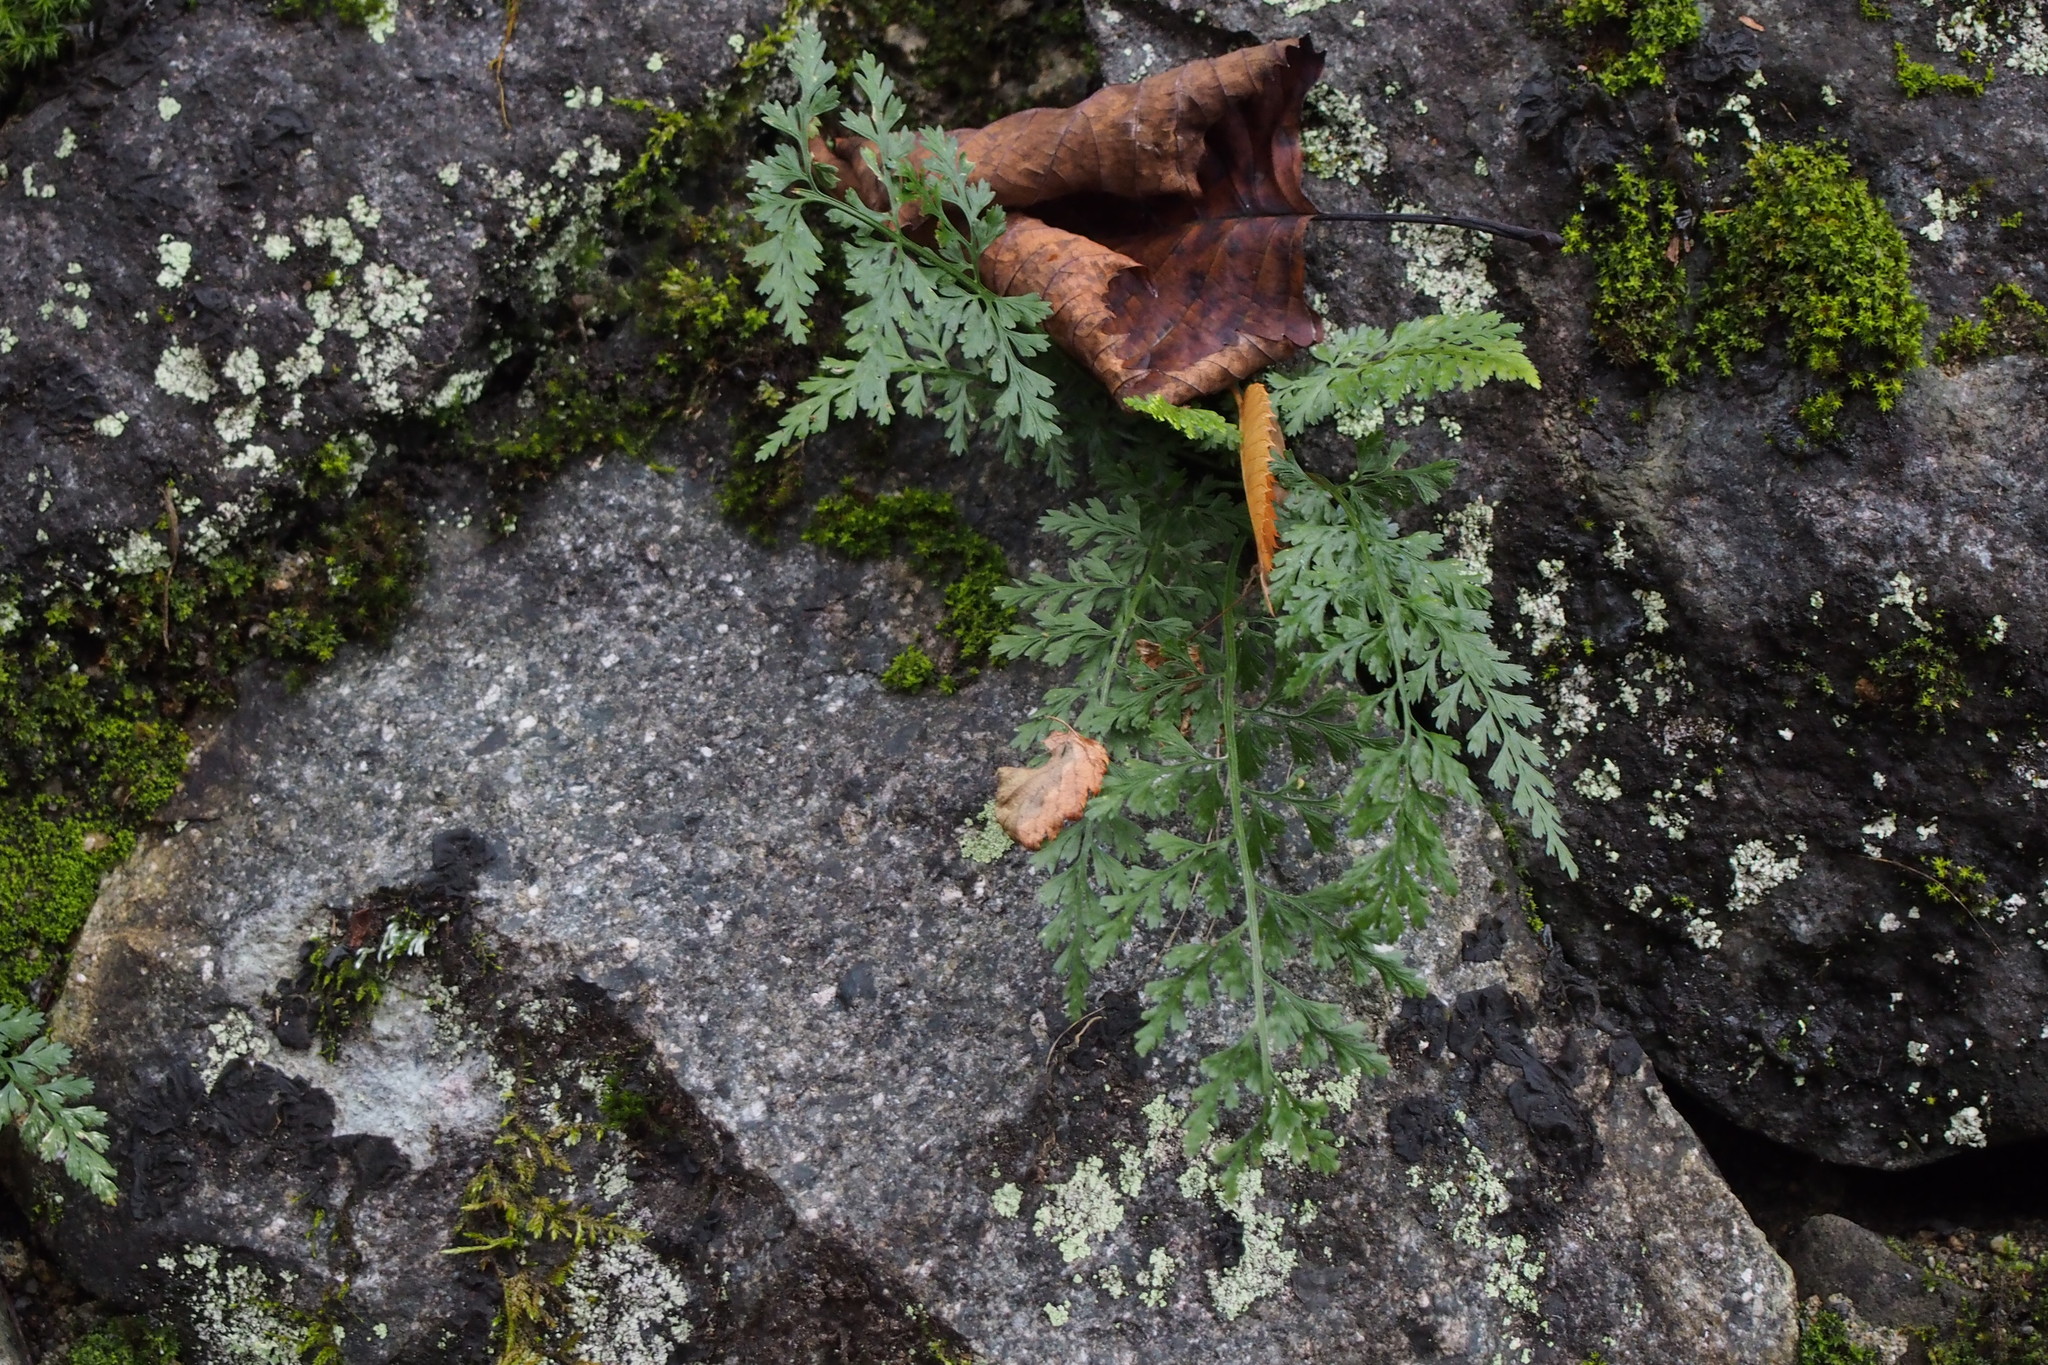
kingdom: Plantae
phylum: Tracheophyta
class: Polypodiopsida
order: Polypodiales
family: Aspleniaceae
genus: Asplenium
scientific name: Asplenium wilfordii
